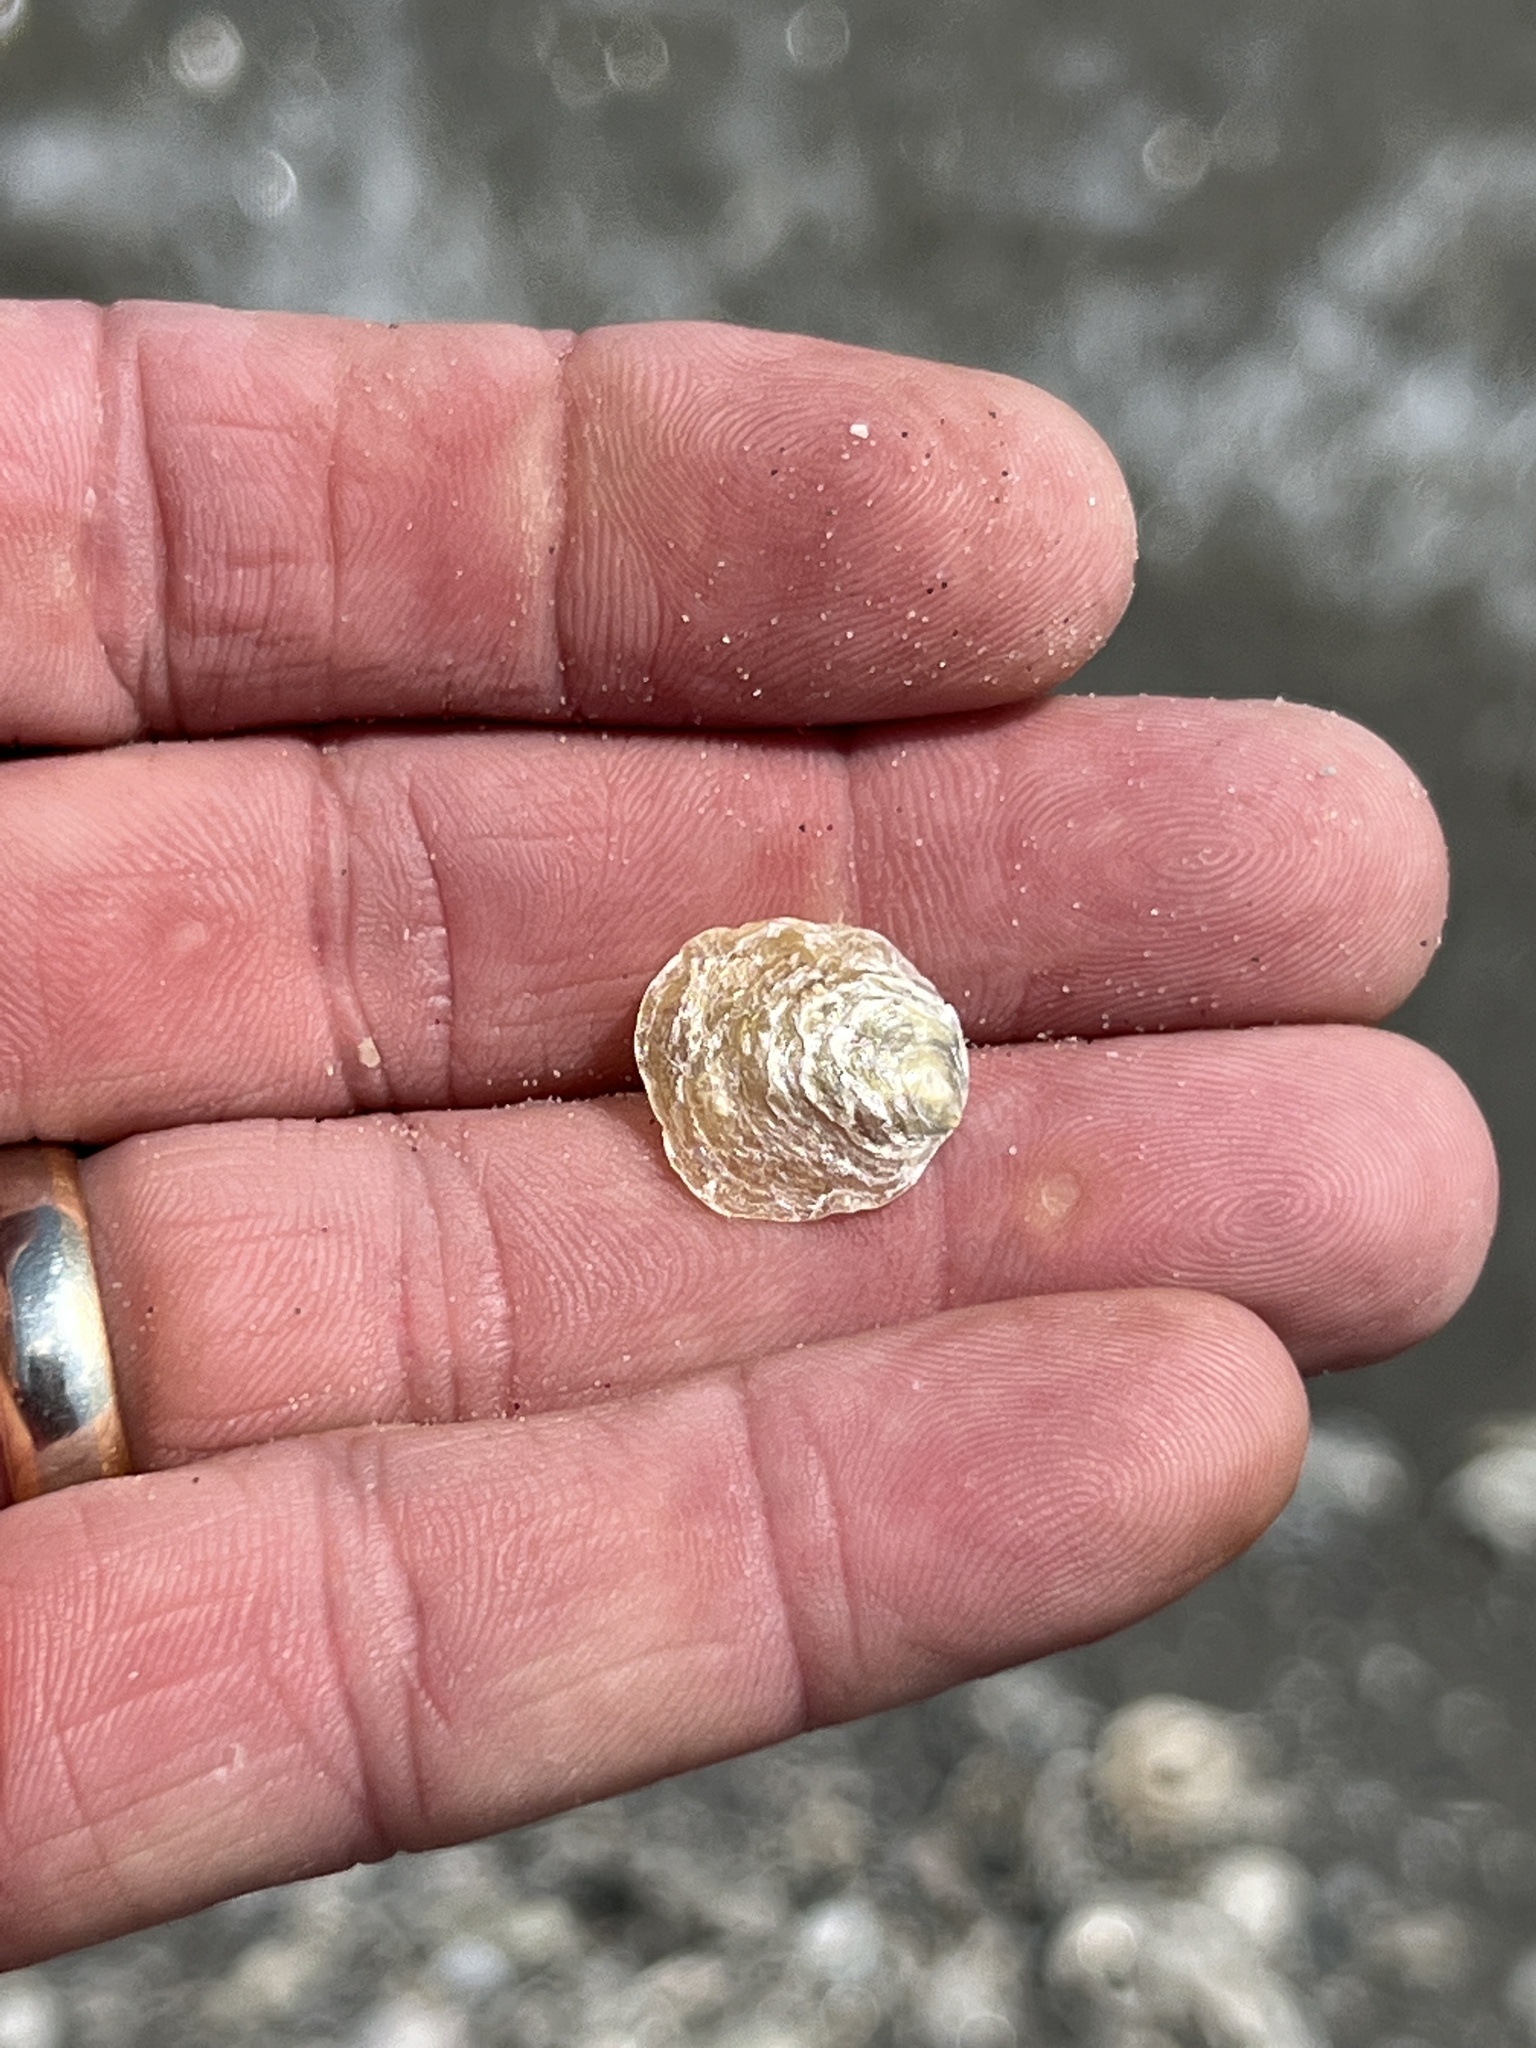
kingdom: Animalia
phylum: Mollusca
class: Bivalvia
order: Pectinida
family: Anomiidae
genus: Anomia
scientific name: Anomia simplex
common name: Common jingle shell
